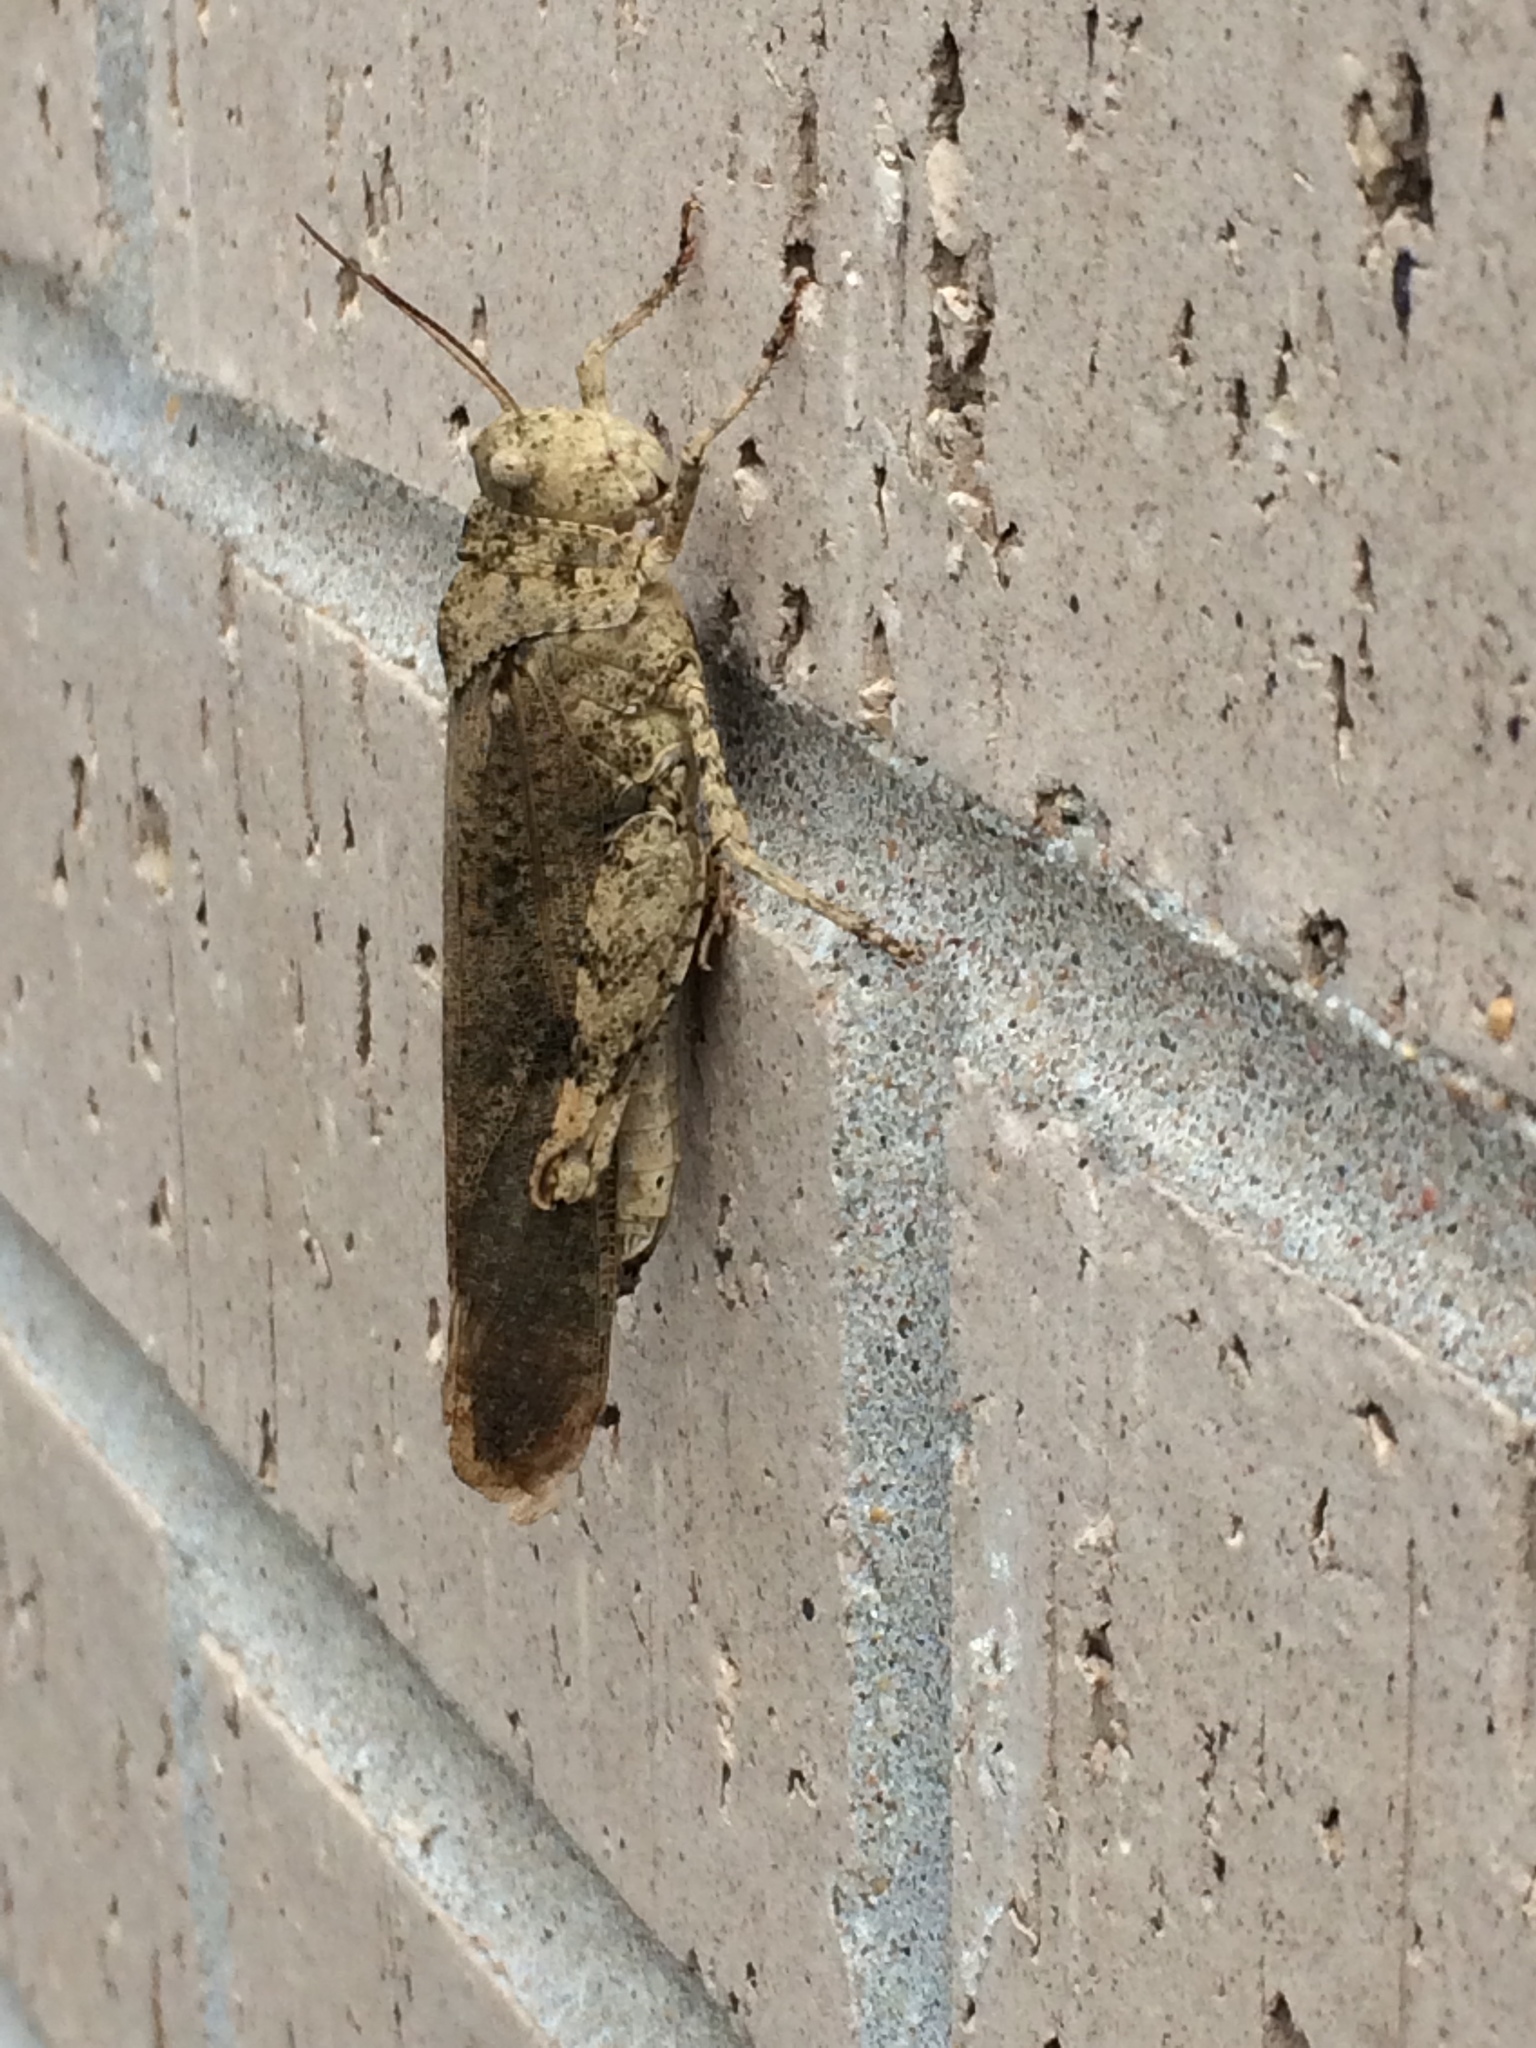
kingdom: Animalia
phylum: Arthropoda
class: Insecta
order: Orthoptera
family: Acrididae
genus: Dissosteira
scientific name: Dissosteira carolina
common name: Carolina grasshopper
